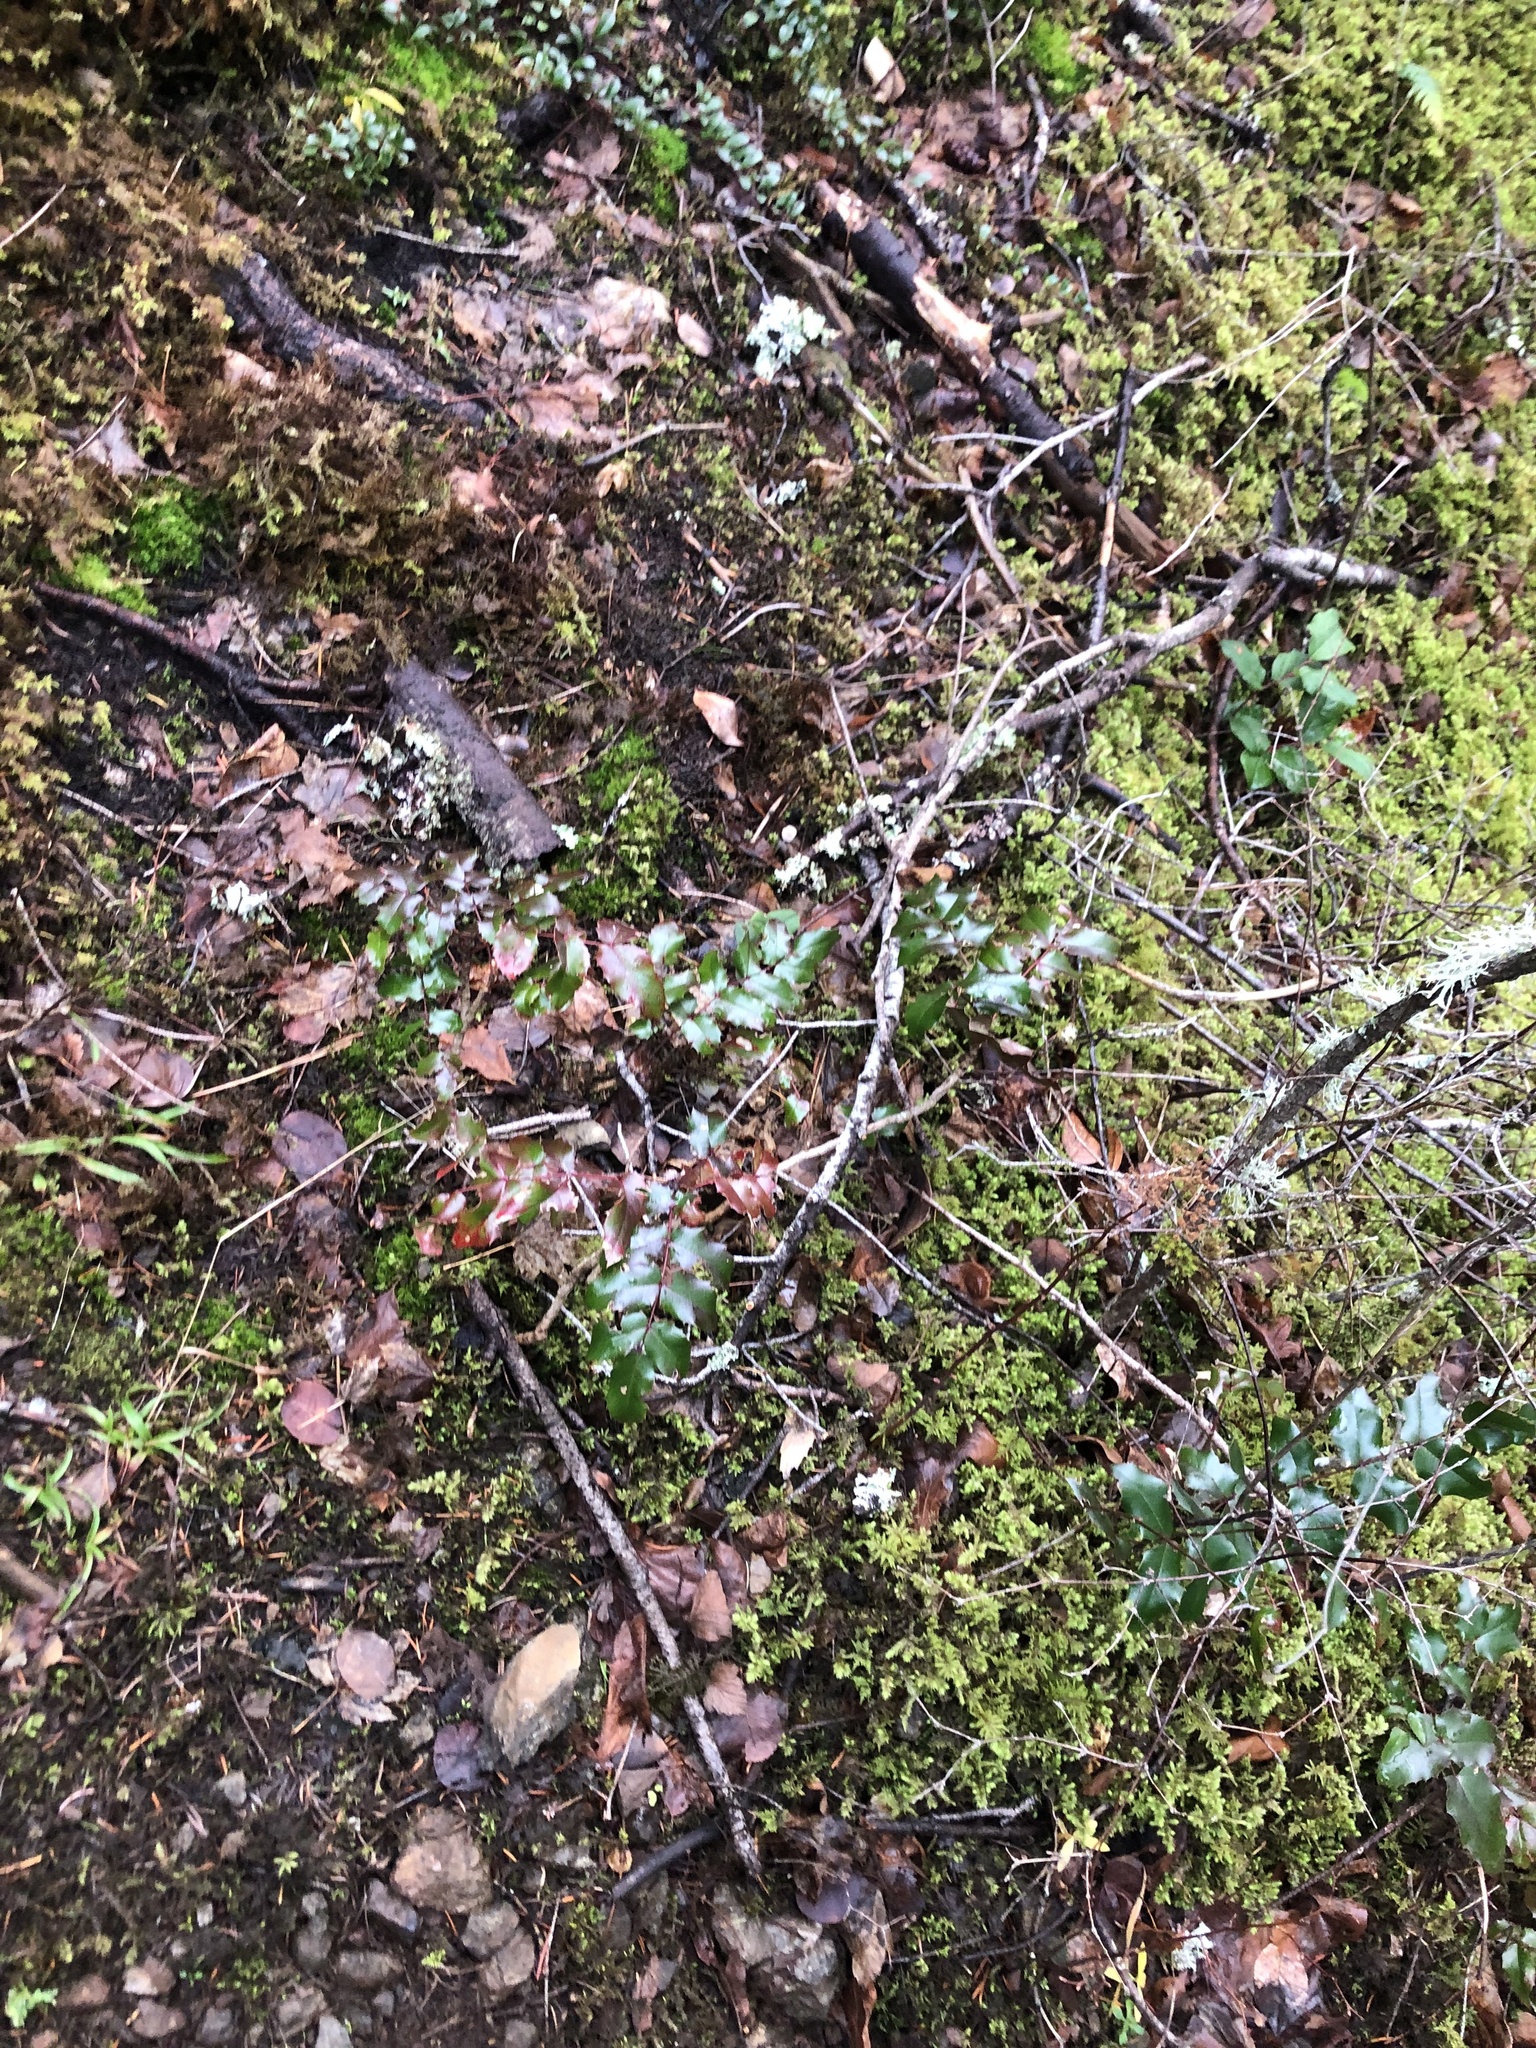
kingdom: Plantae
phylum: Tracheophyta
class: Magnoliopsida
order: Ranunculales
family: Berberidaceae
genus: Mahonia
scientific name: Mahonia aquifolium
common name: Oregon-grape
